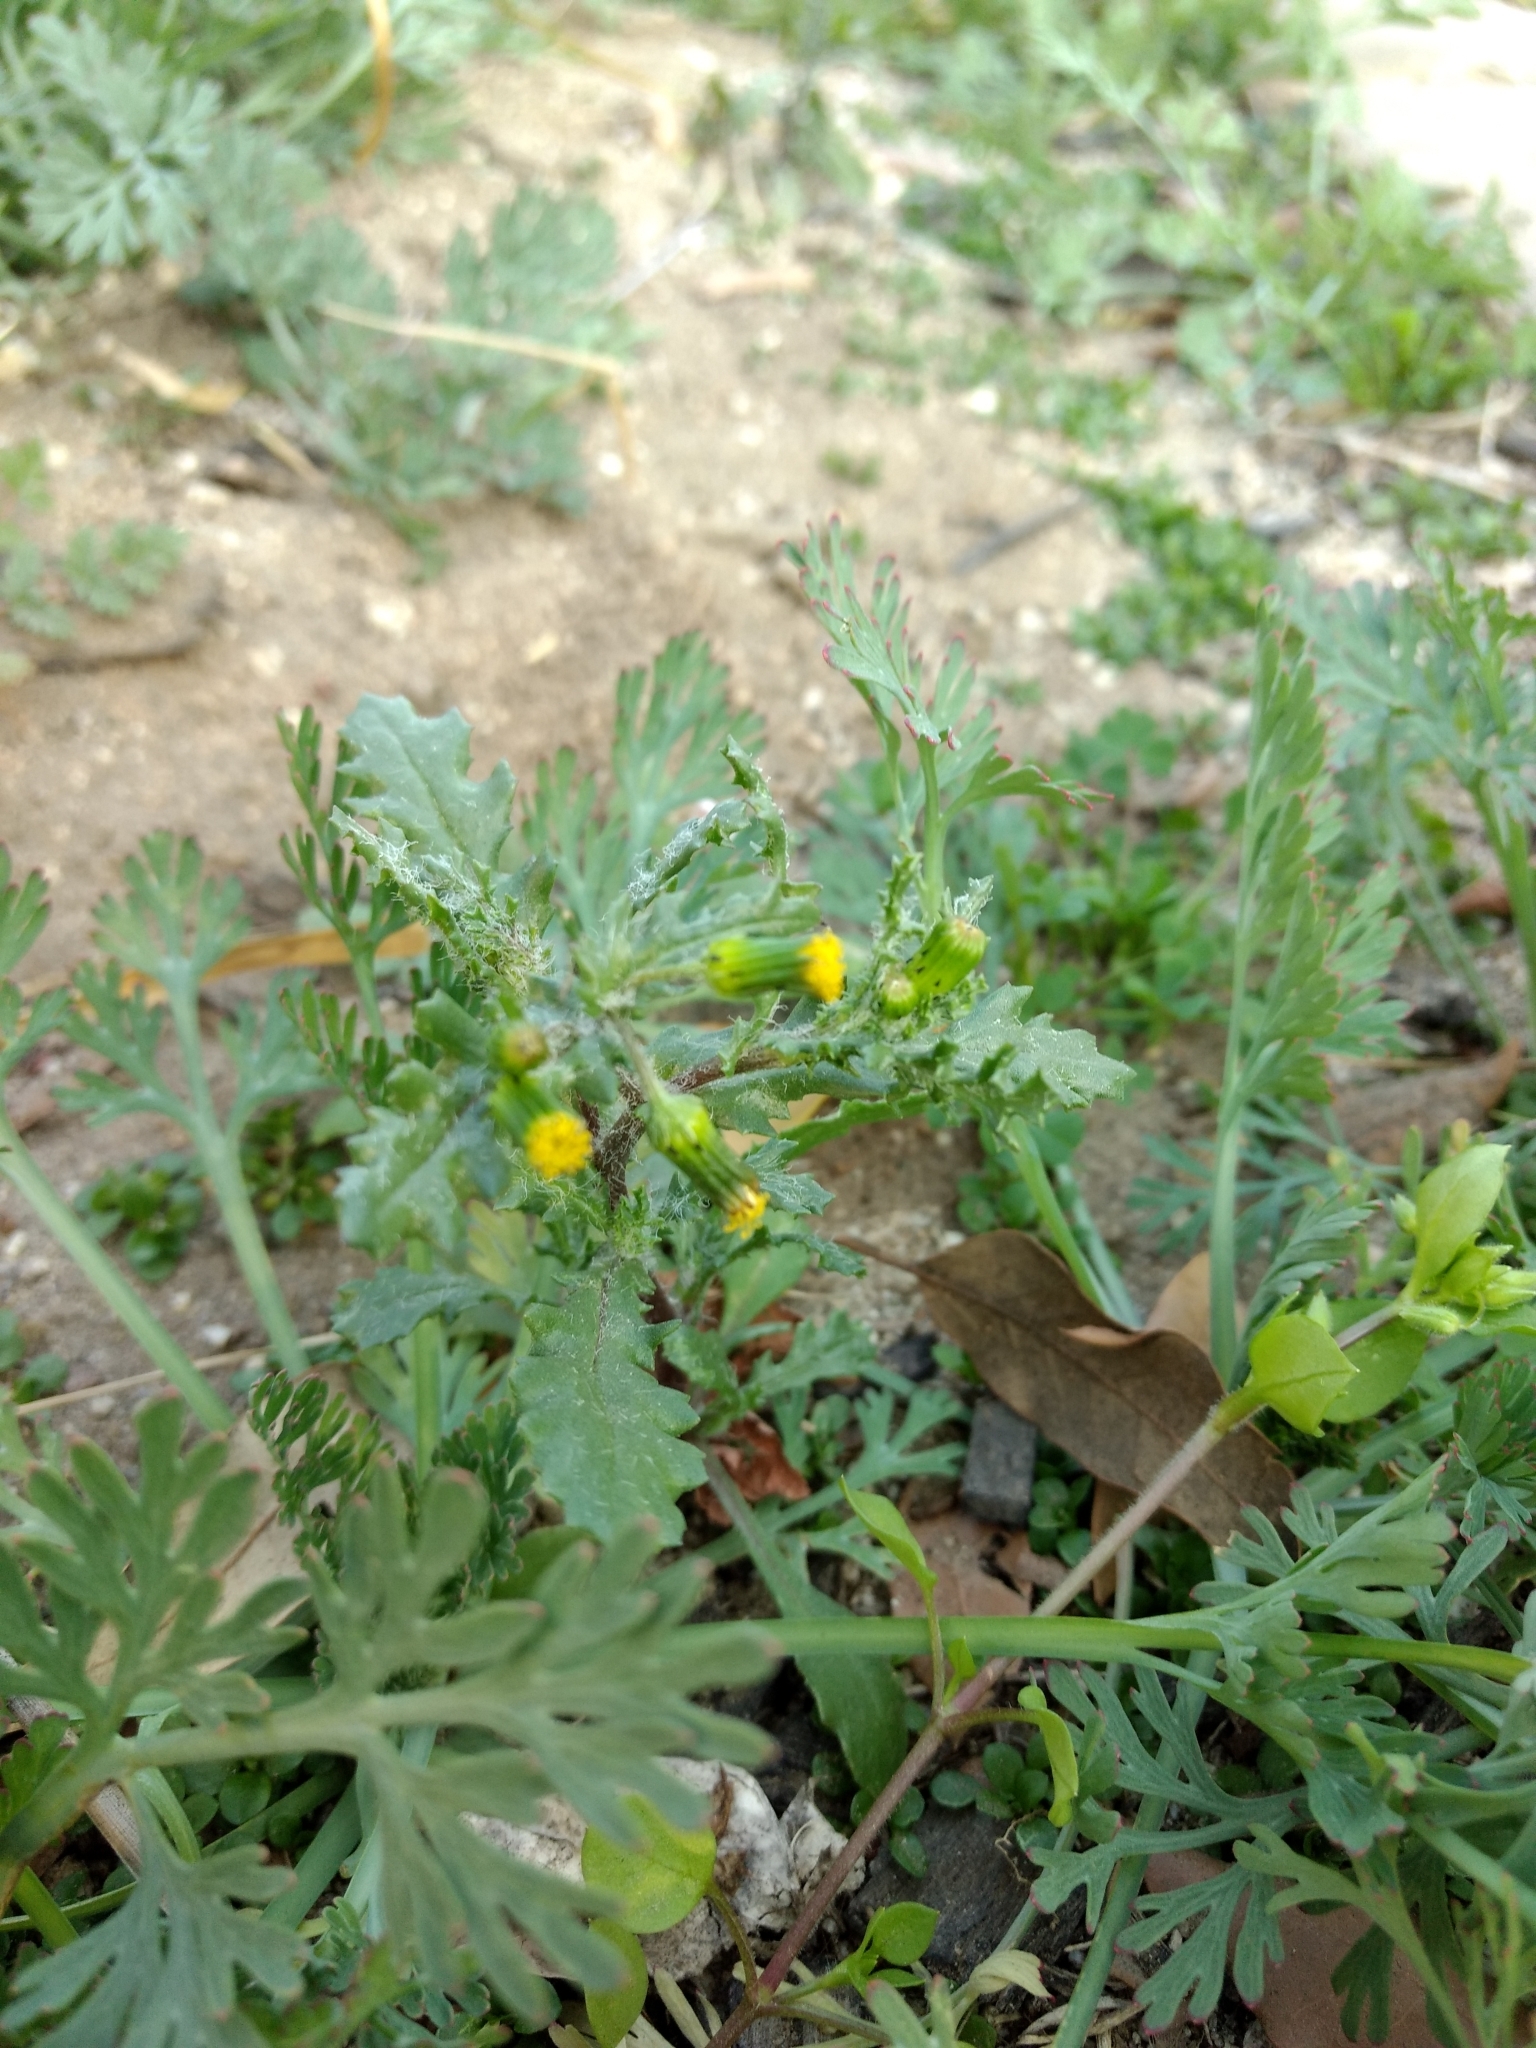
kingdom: Plantae
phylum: Tracheophyta
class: Magnoliopsida
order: Asterales
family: Asteraceae
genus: Senecio
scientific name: Senecio vulgaris
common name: Old-man-in-the-spring
